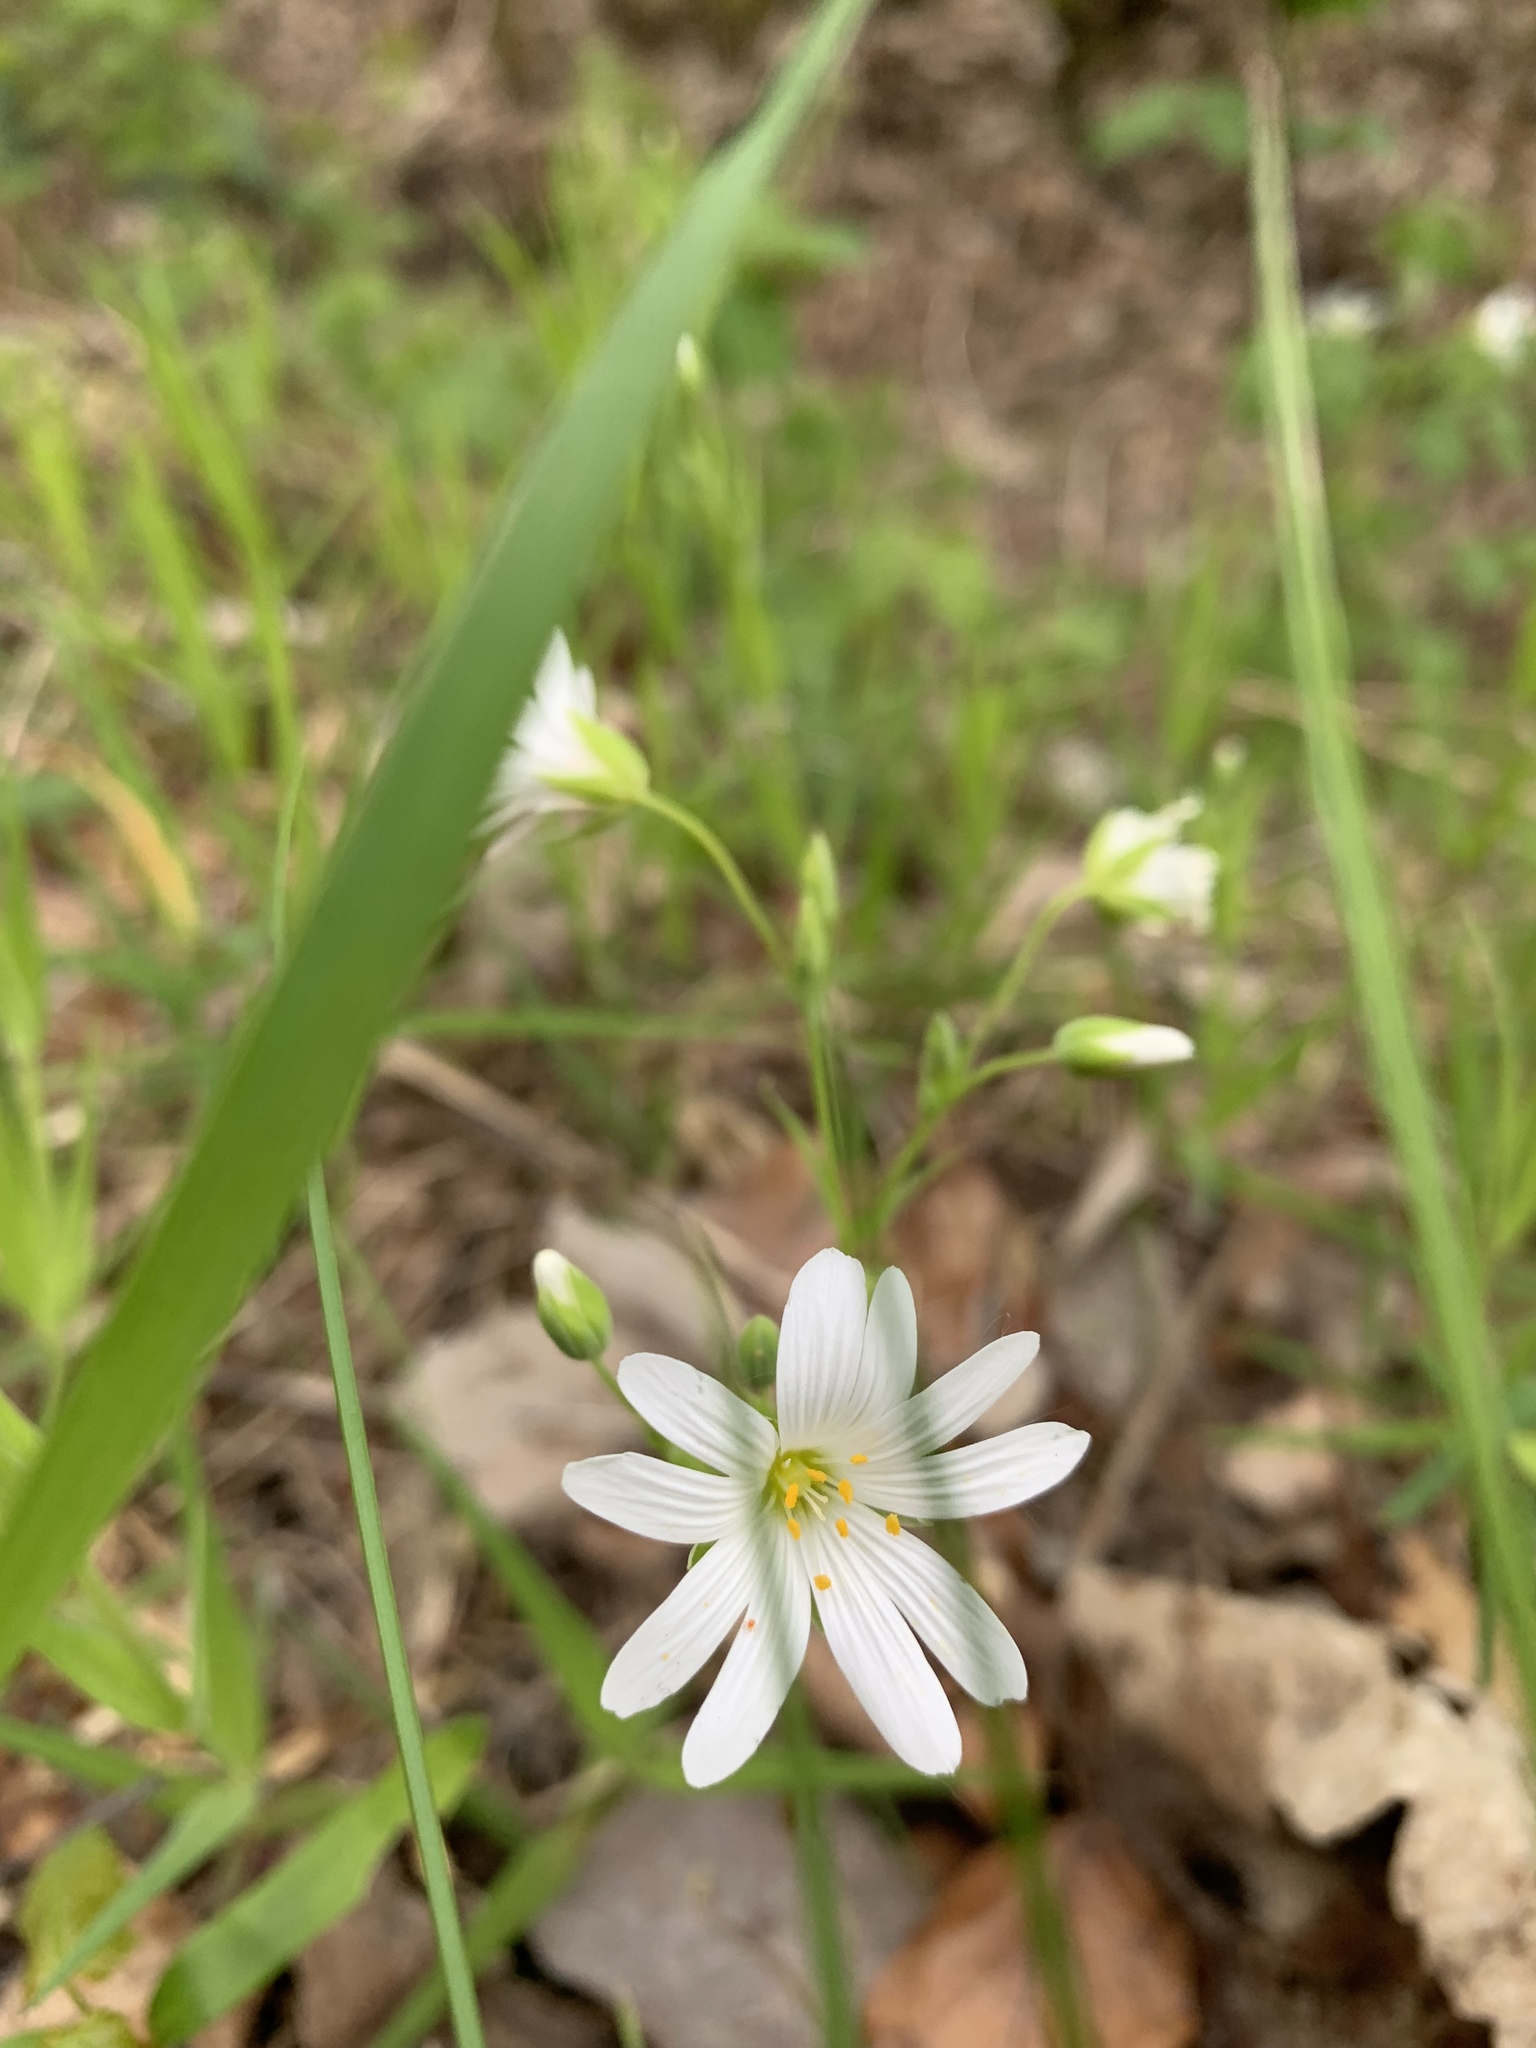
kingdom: Plantae
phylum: Tracheophyta
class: Magnoliopsida
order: Caryophyllales
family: Caryophyllaceae
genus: Rabelera
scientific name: Rabelera holostea
